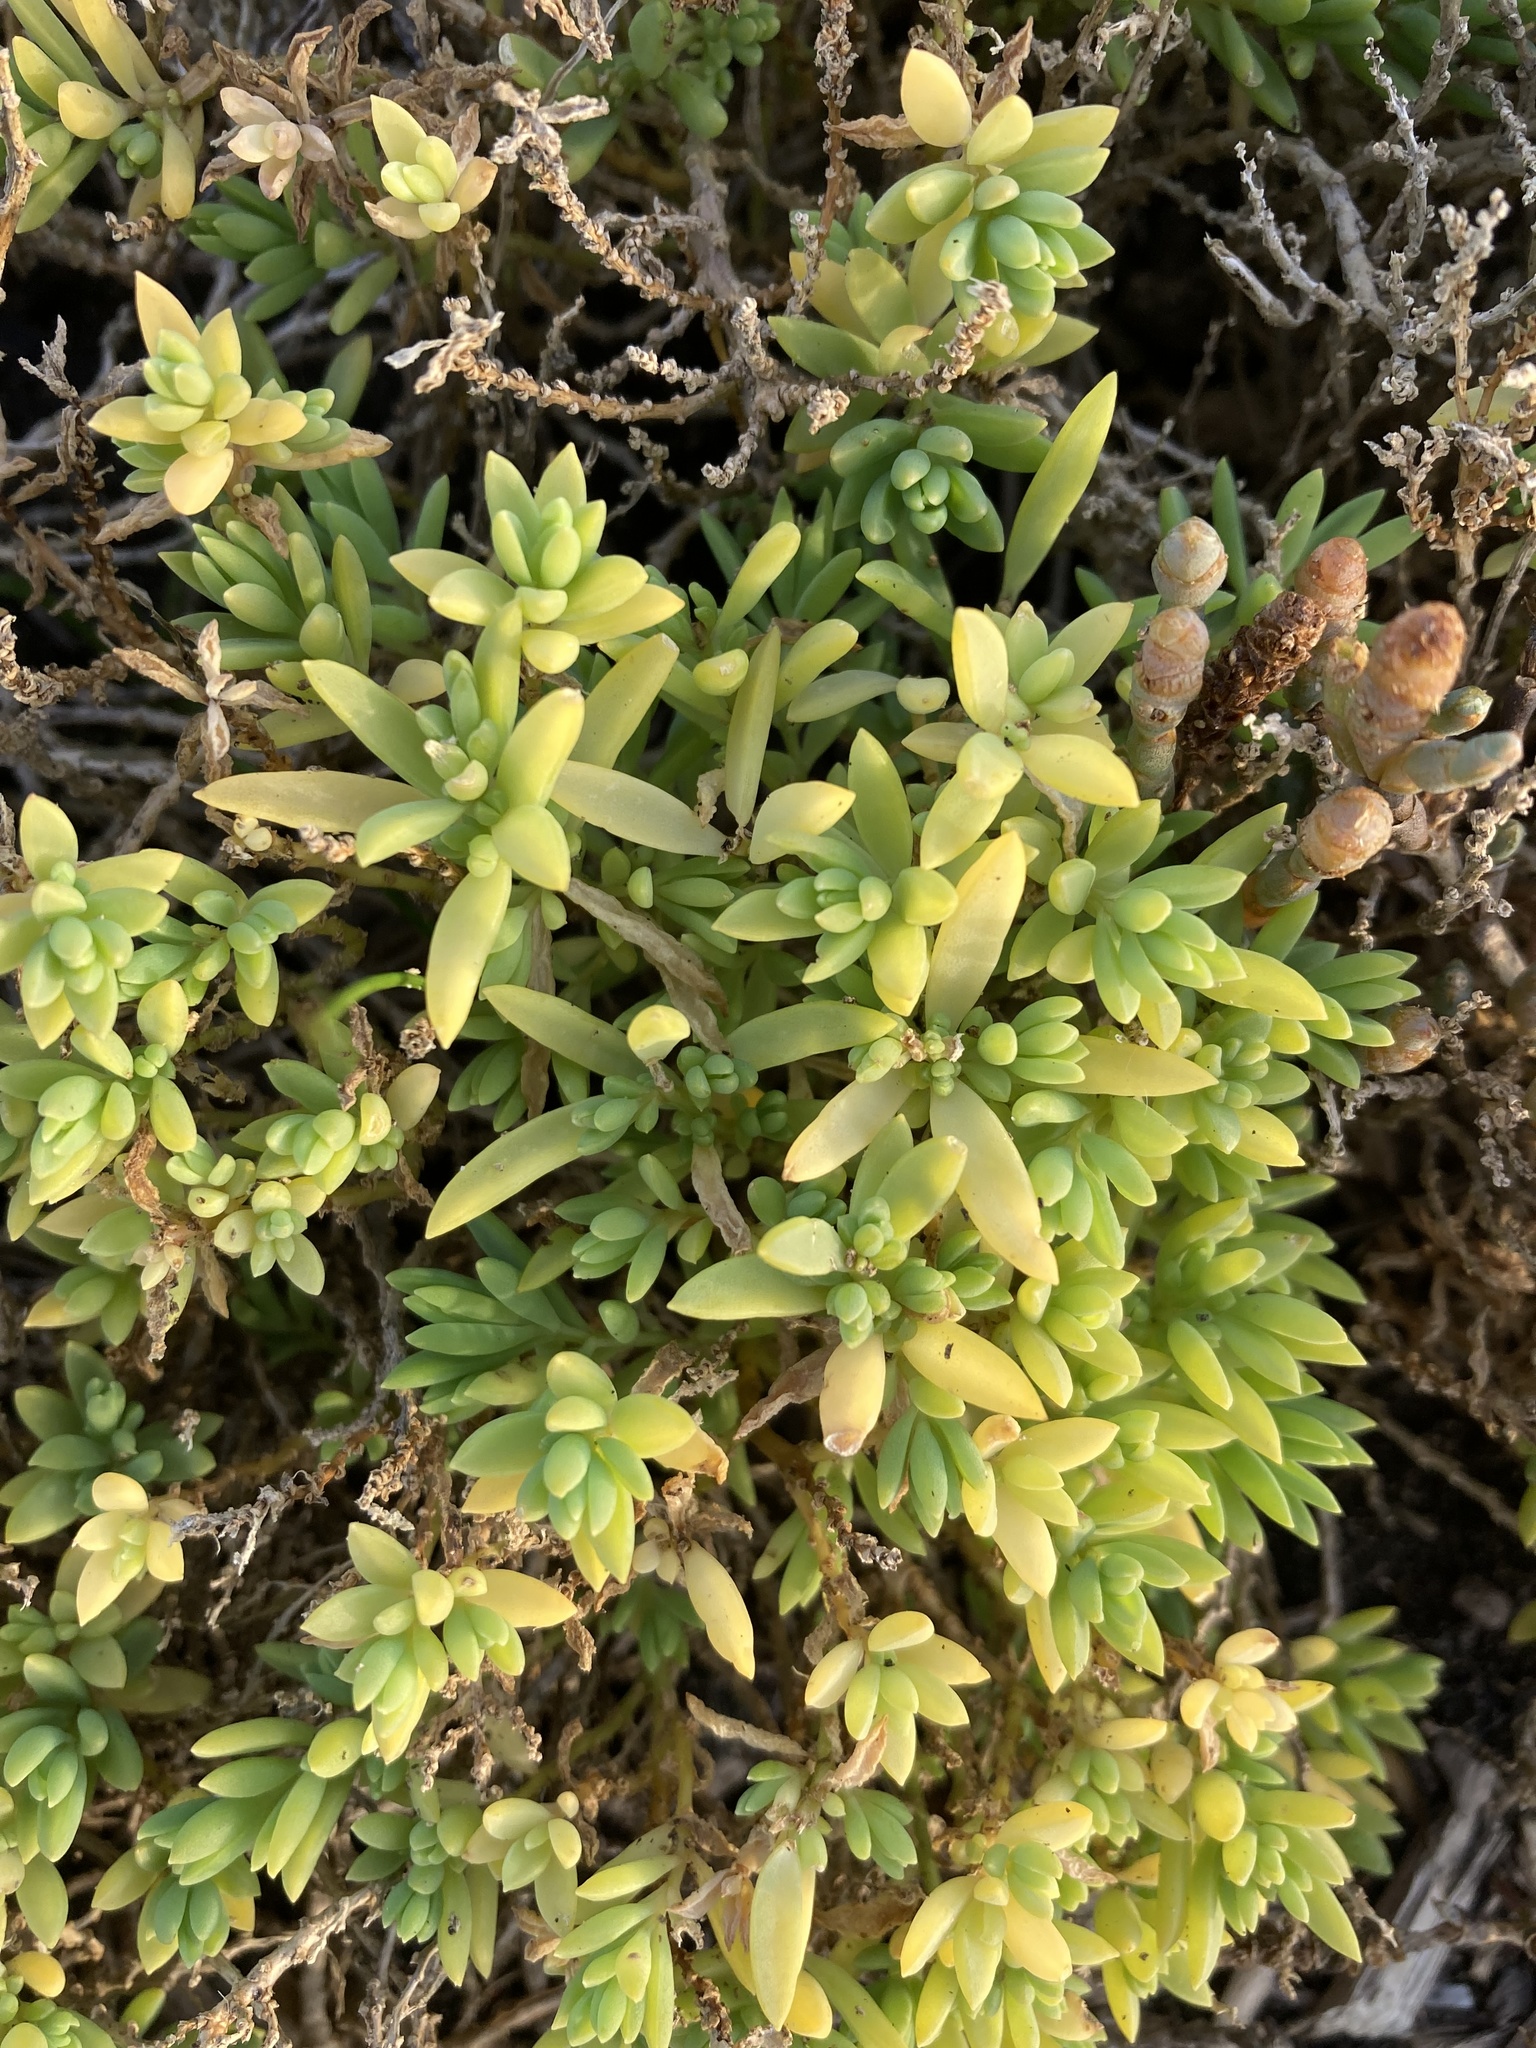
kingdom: Plantae
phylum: Tracheophyta
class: Magnoliopsida
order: Caryophyllales
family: Amaranthaceae
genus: Suaeda
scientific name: Suaeda novae-zelandiae
